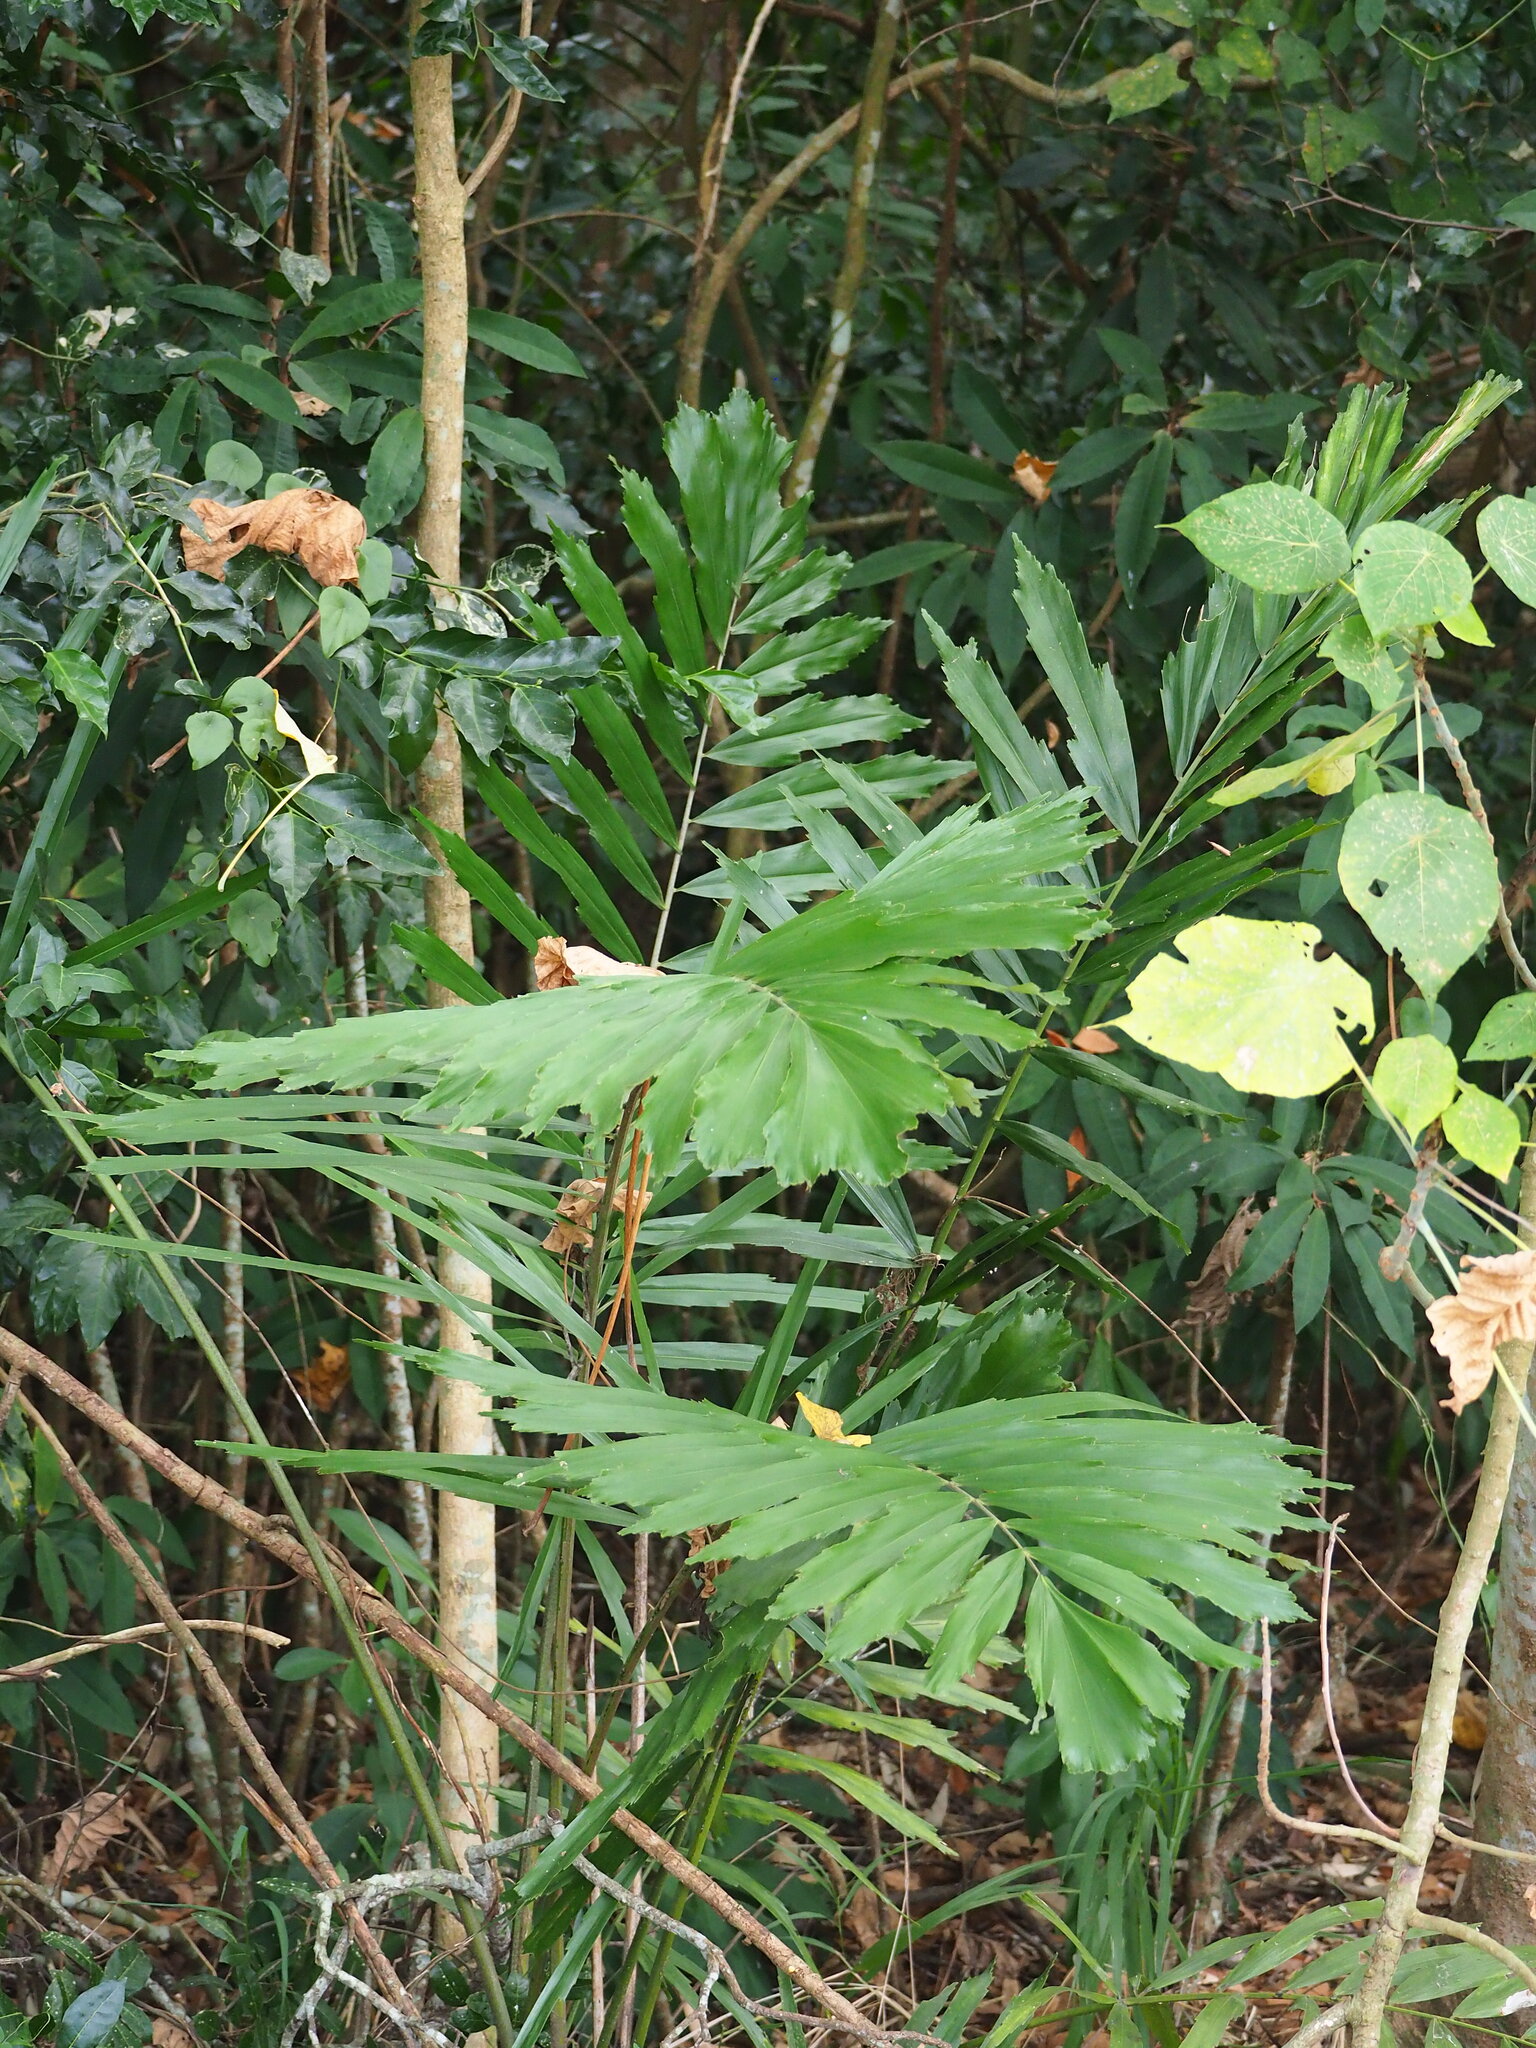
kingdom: Plantae
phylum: Tracheophyta
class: Liliopsida
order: Arecales
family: Arecaceae
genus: Arenga
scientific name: Arenga engleri
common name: Formosan sugar palm
